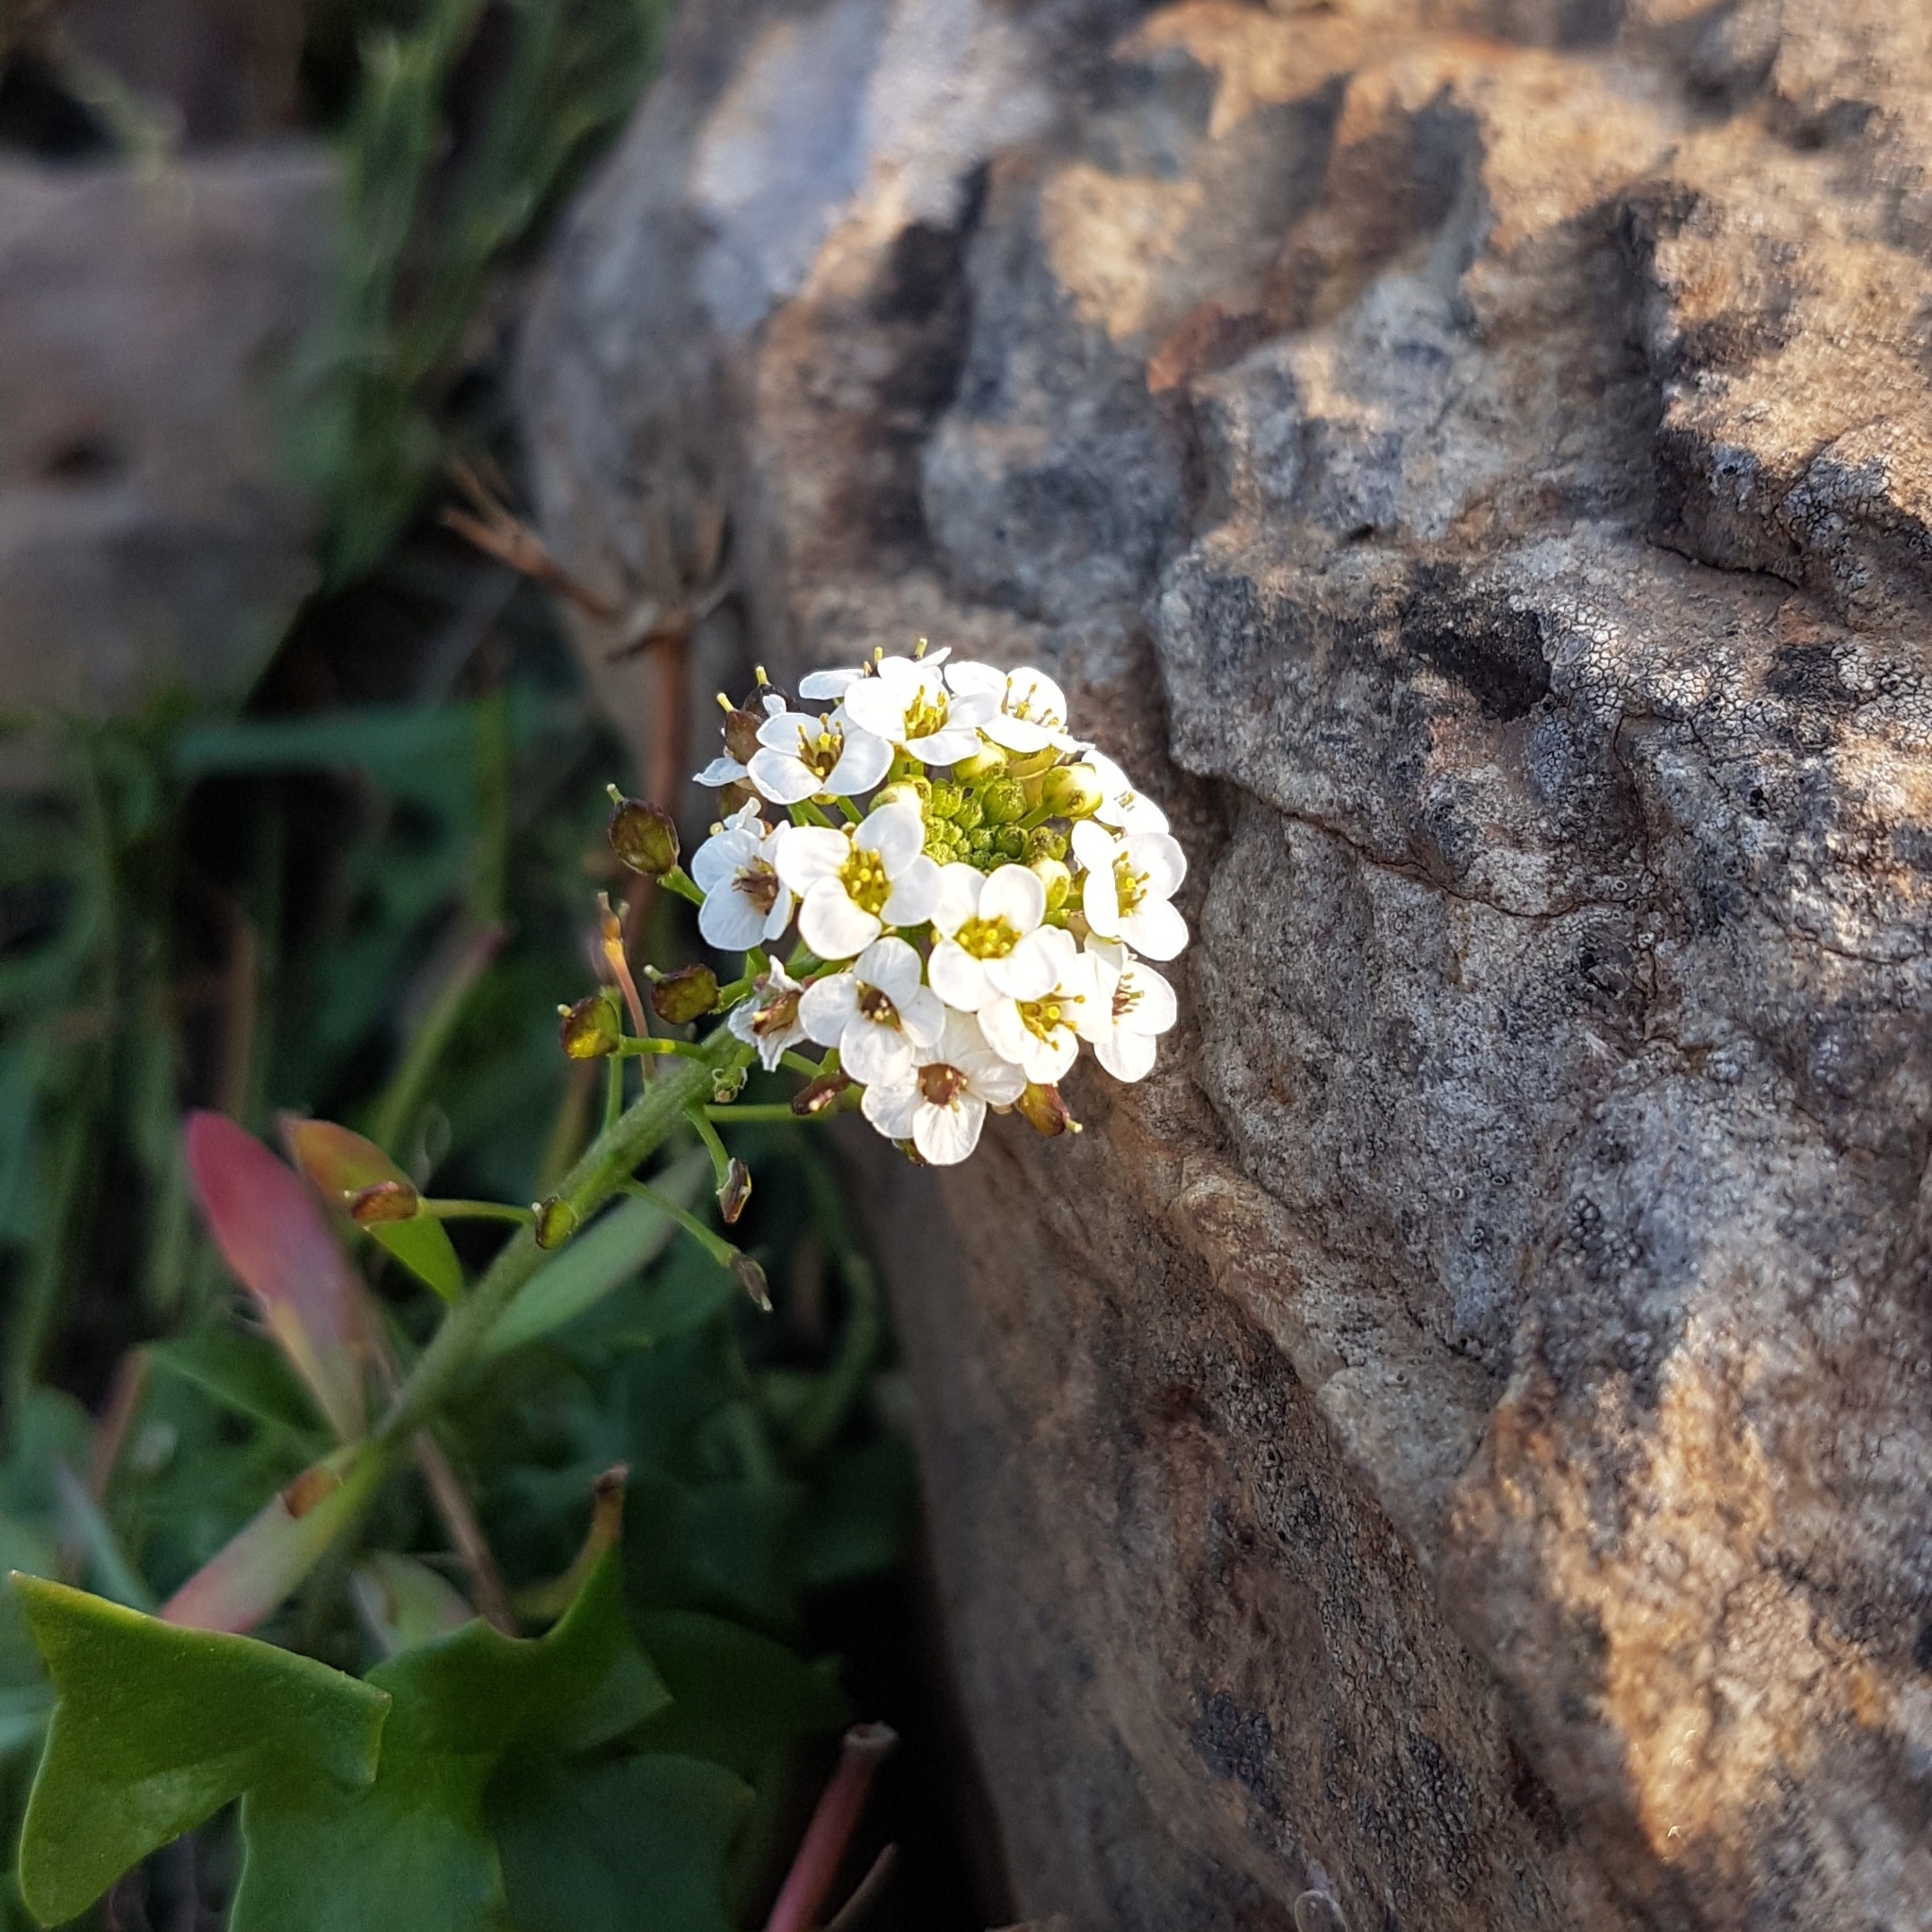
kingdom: Plantae
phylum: Tracheophyta
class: Magnoliopsida
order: Brassicales
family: Brassicaceae
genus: Lobularia
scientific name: Lobularia maritima
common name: Sweet alison
